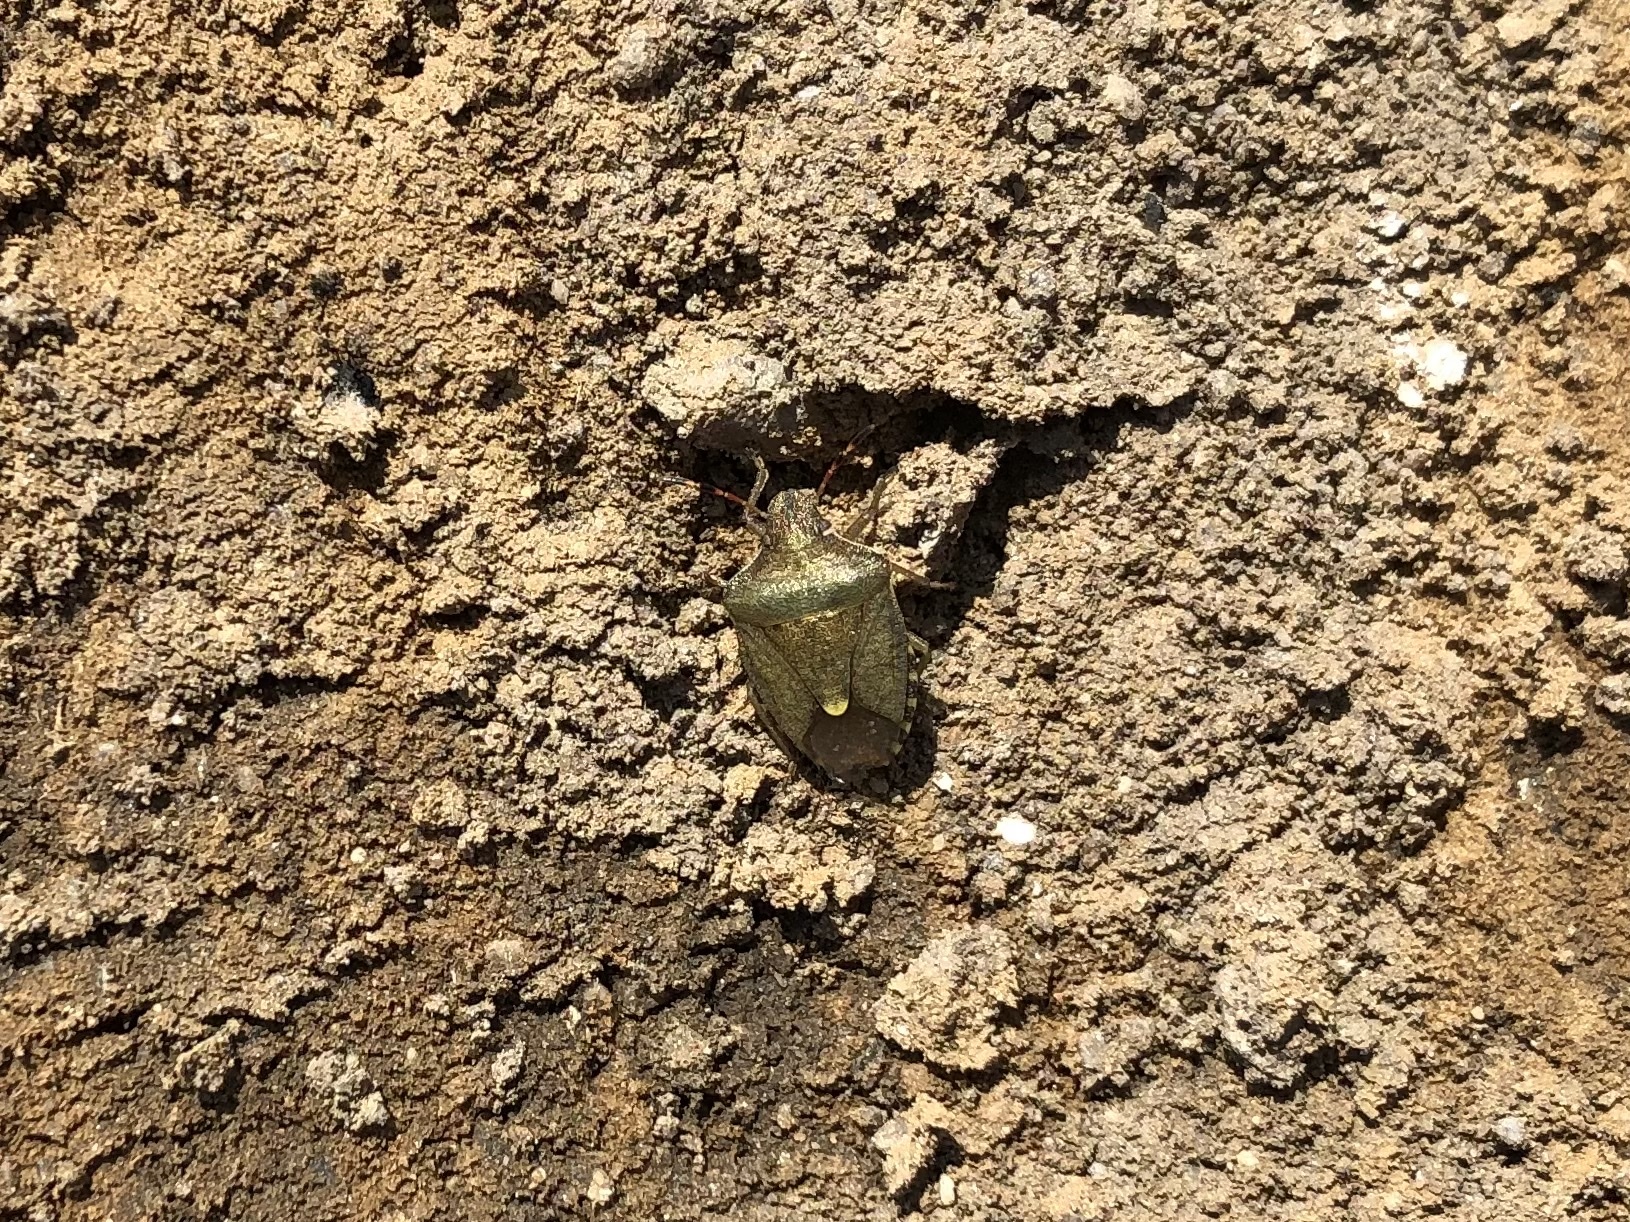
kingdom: Animalia
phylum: Arthropoda
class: Insecta
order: Hemiptera
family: Pentatomidae
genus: Holcostethus
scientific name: Holcostethus strictus
